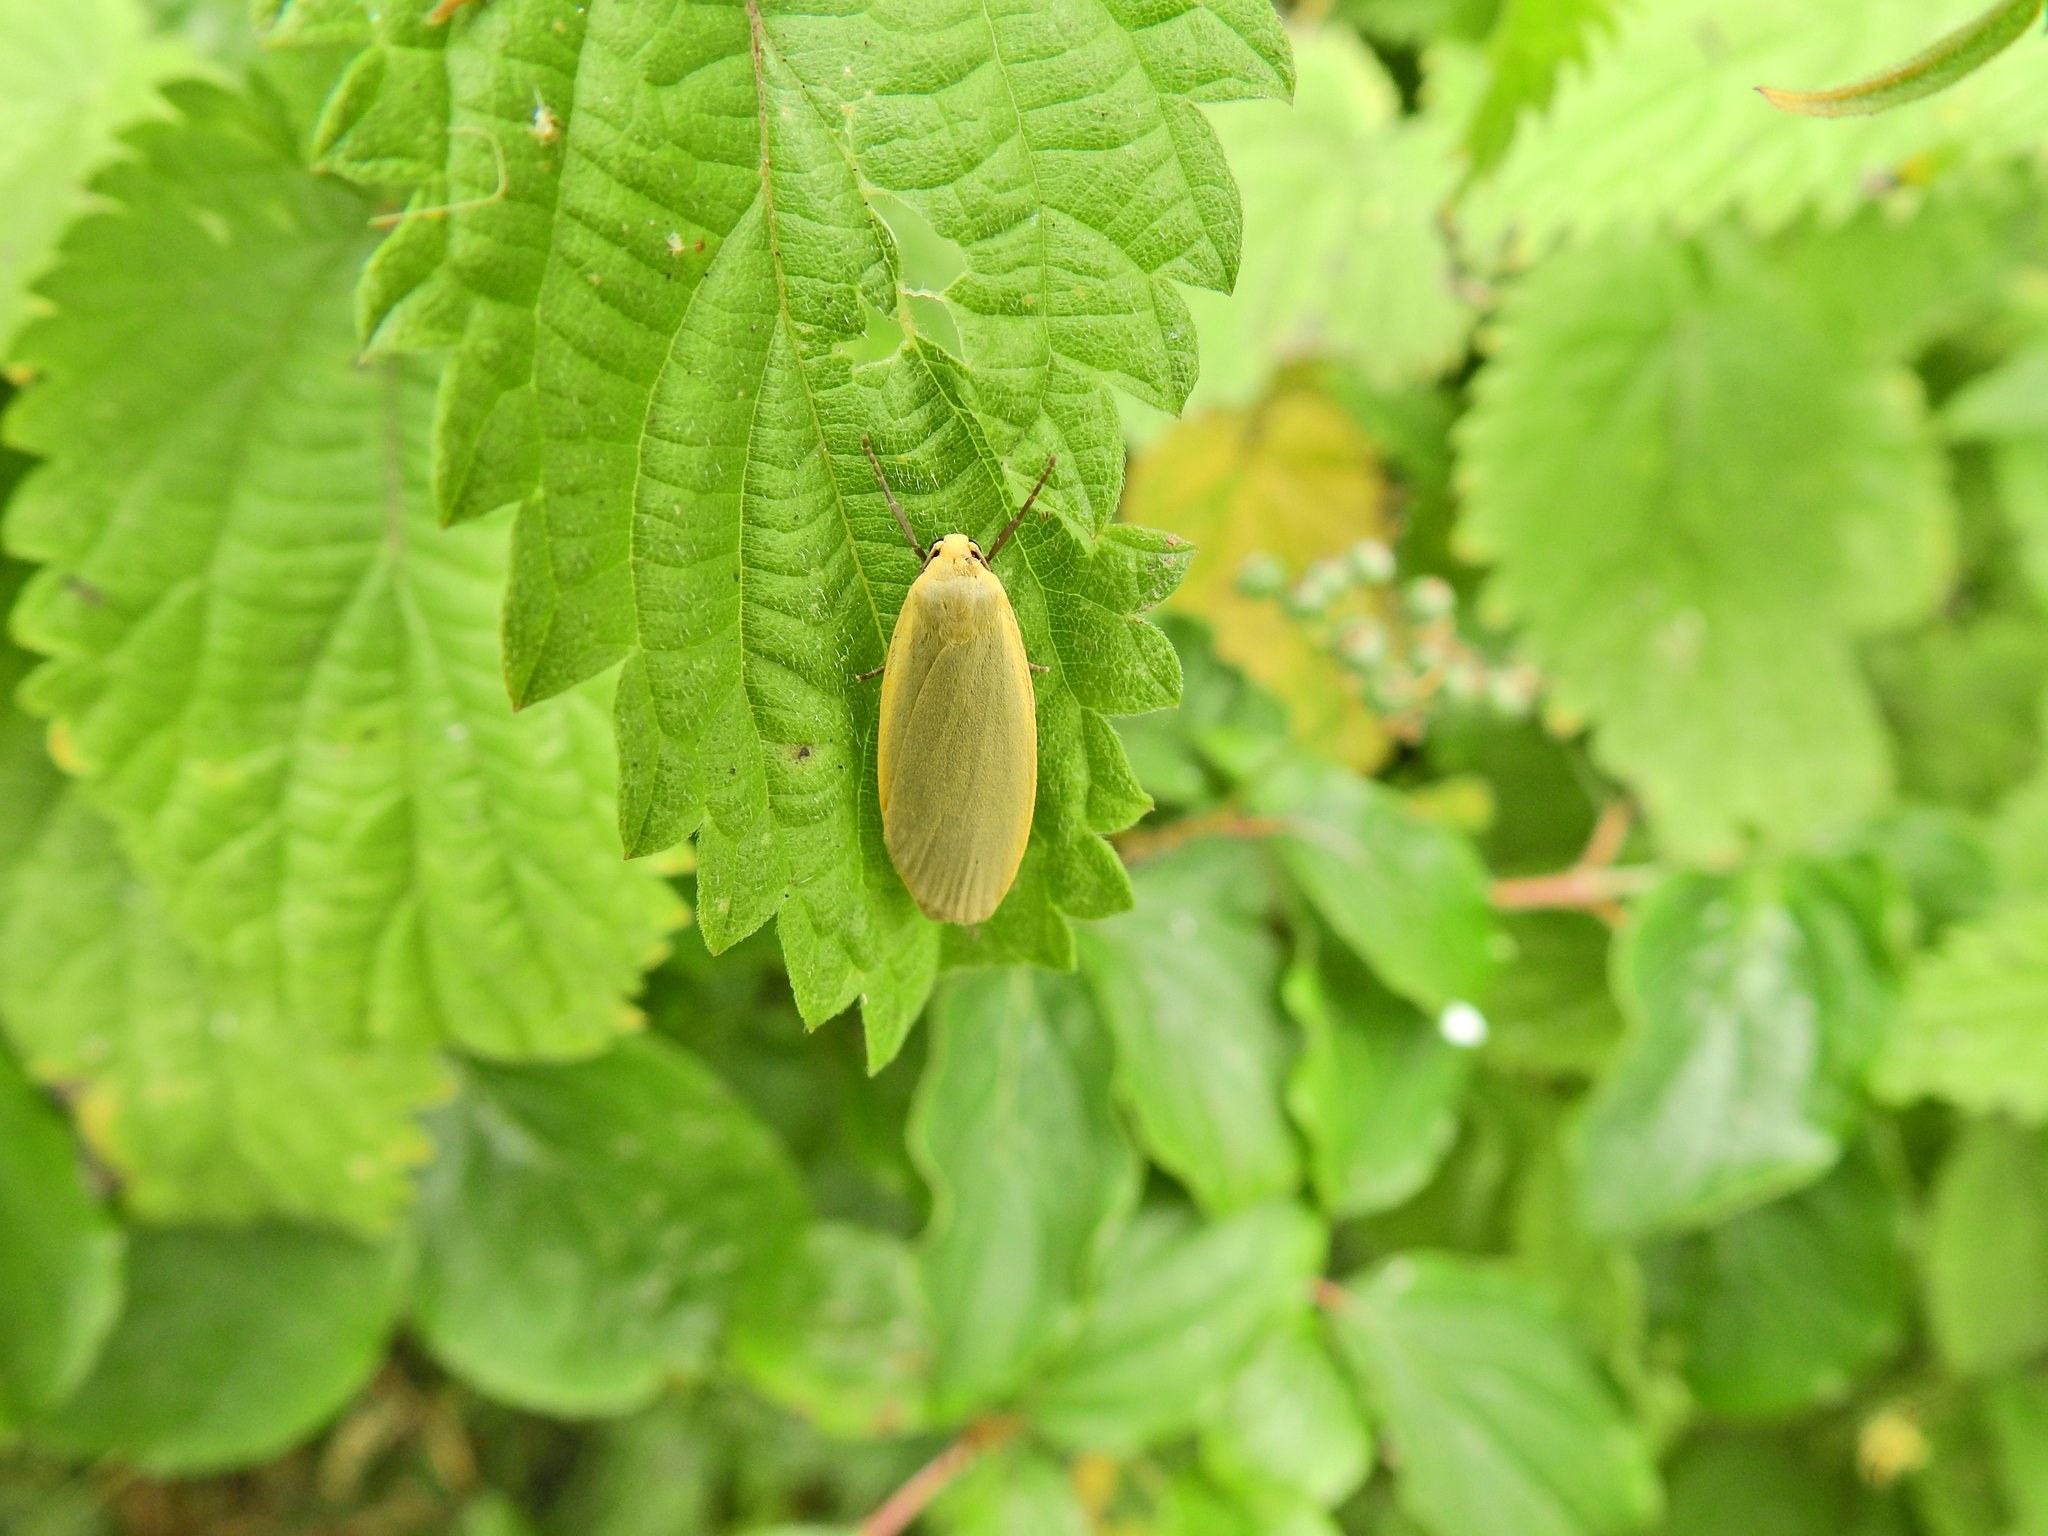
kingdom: Animalia
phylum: Arthropoda
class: Insecta
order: Lepidoptera
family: Erebidae
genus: Collita
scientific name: Collita griseola
